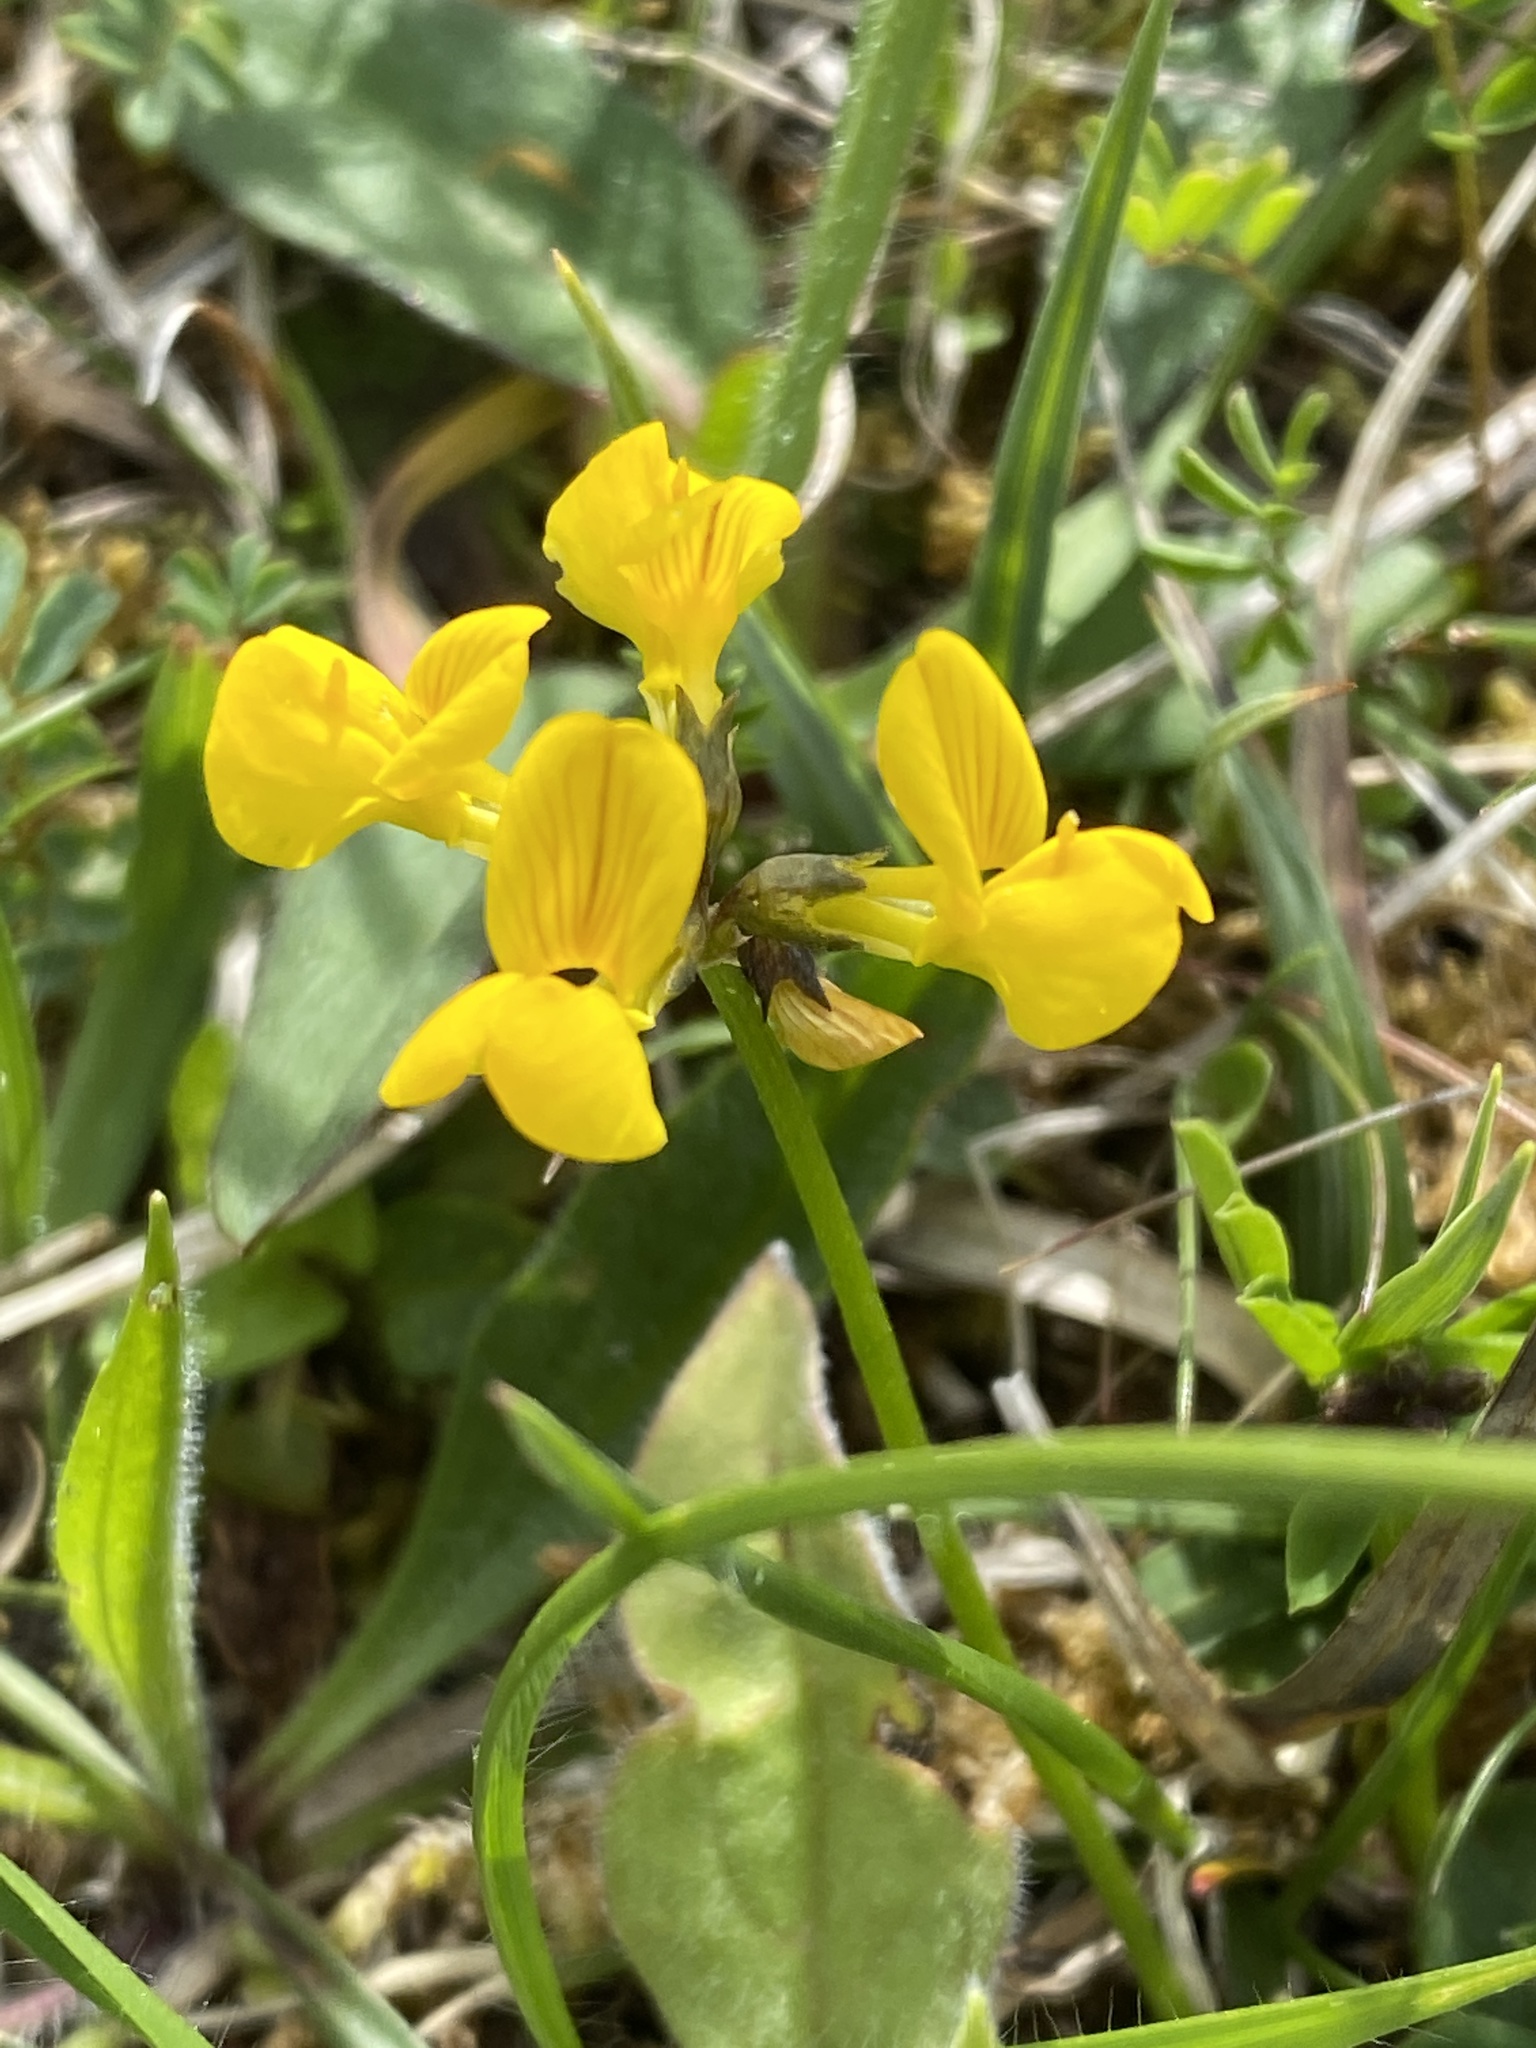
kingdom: Plantae
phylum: Tracheophyta
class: Magnoliopsida
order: Fabales
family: Fabaceae
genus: Hippocrepis
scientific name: Hippocrepis comosa
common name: Horseshoe vetch
